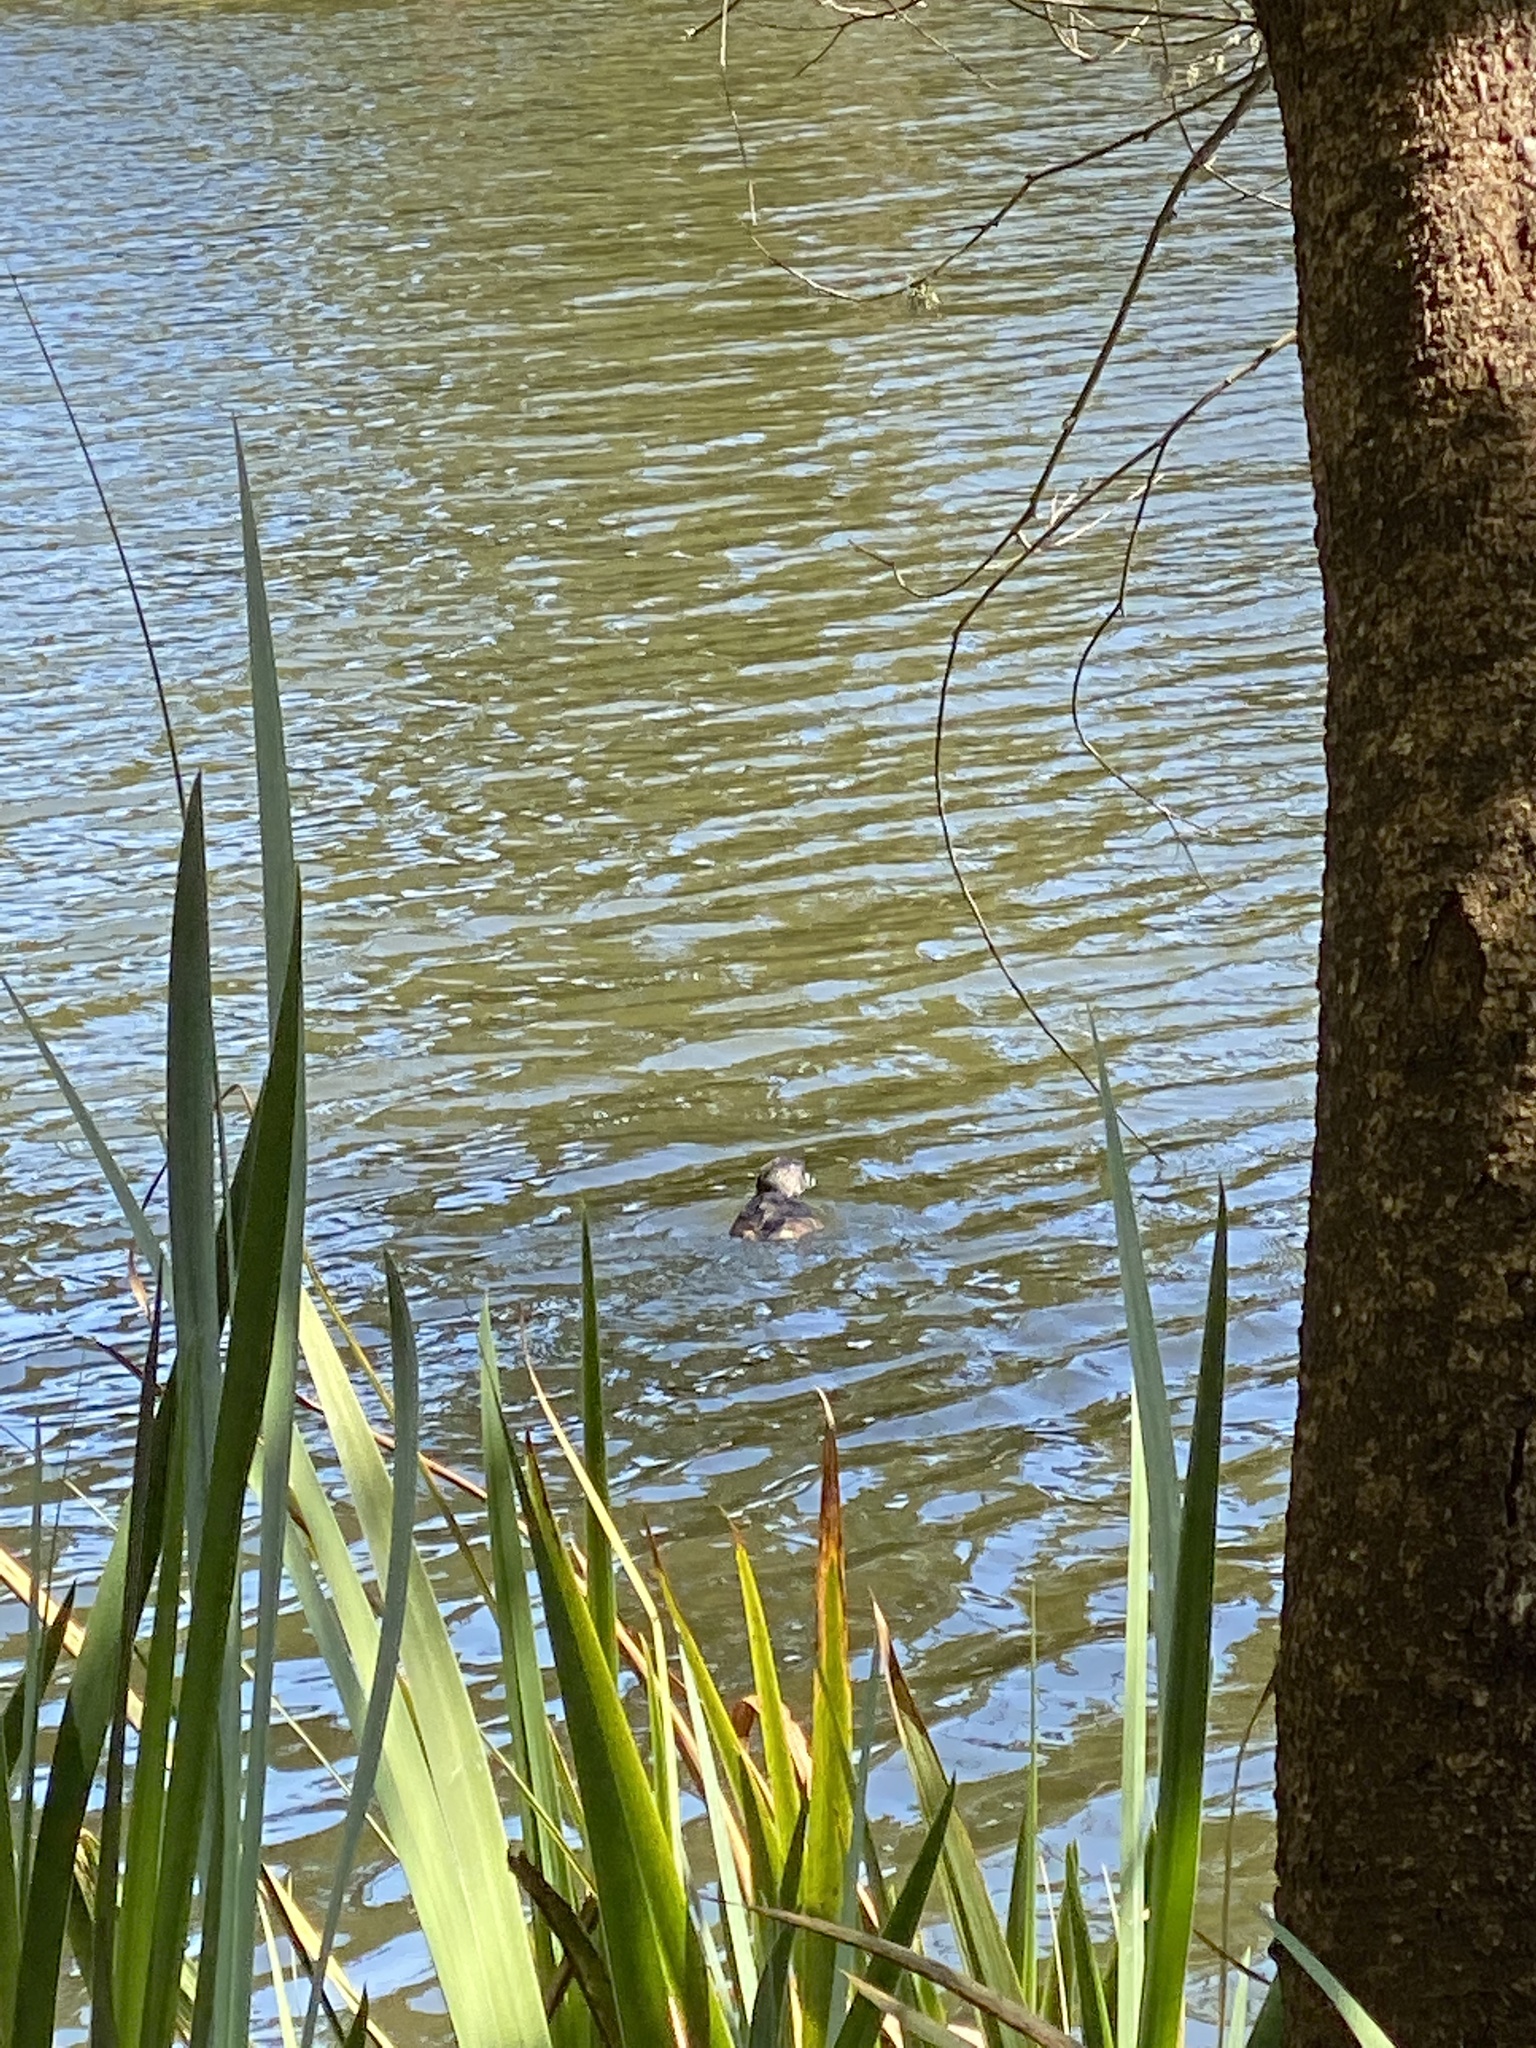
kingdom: Animalia
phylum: Chordata
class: Aves
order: Podicipediformes
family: Podicipedidae
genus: Podilymbus
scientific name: Podilymbus podiceps
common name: Pied-billed grebe
